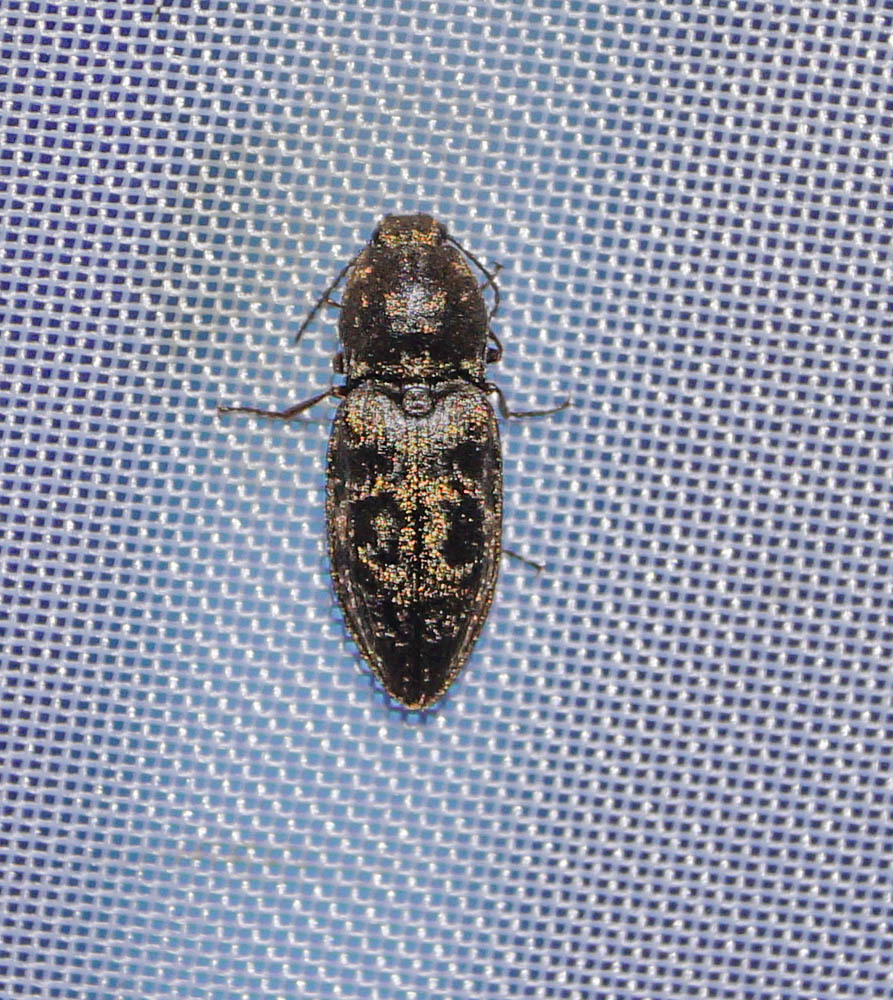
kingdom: Animalia
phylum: Arthropoda
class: Insecta
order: Coleoptera
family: Elateridae
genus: Prosternon
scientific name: Prosternon tessellatum
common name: Chequered click beetle
